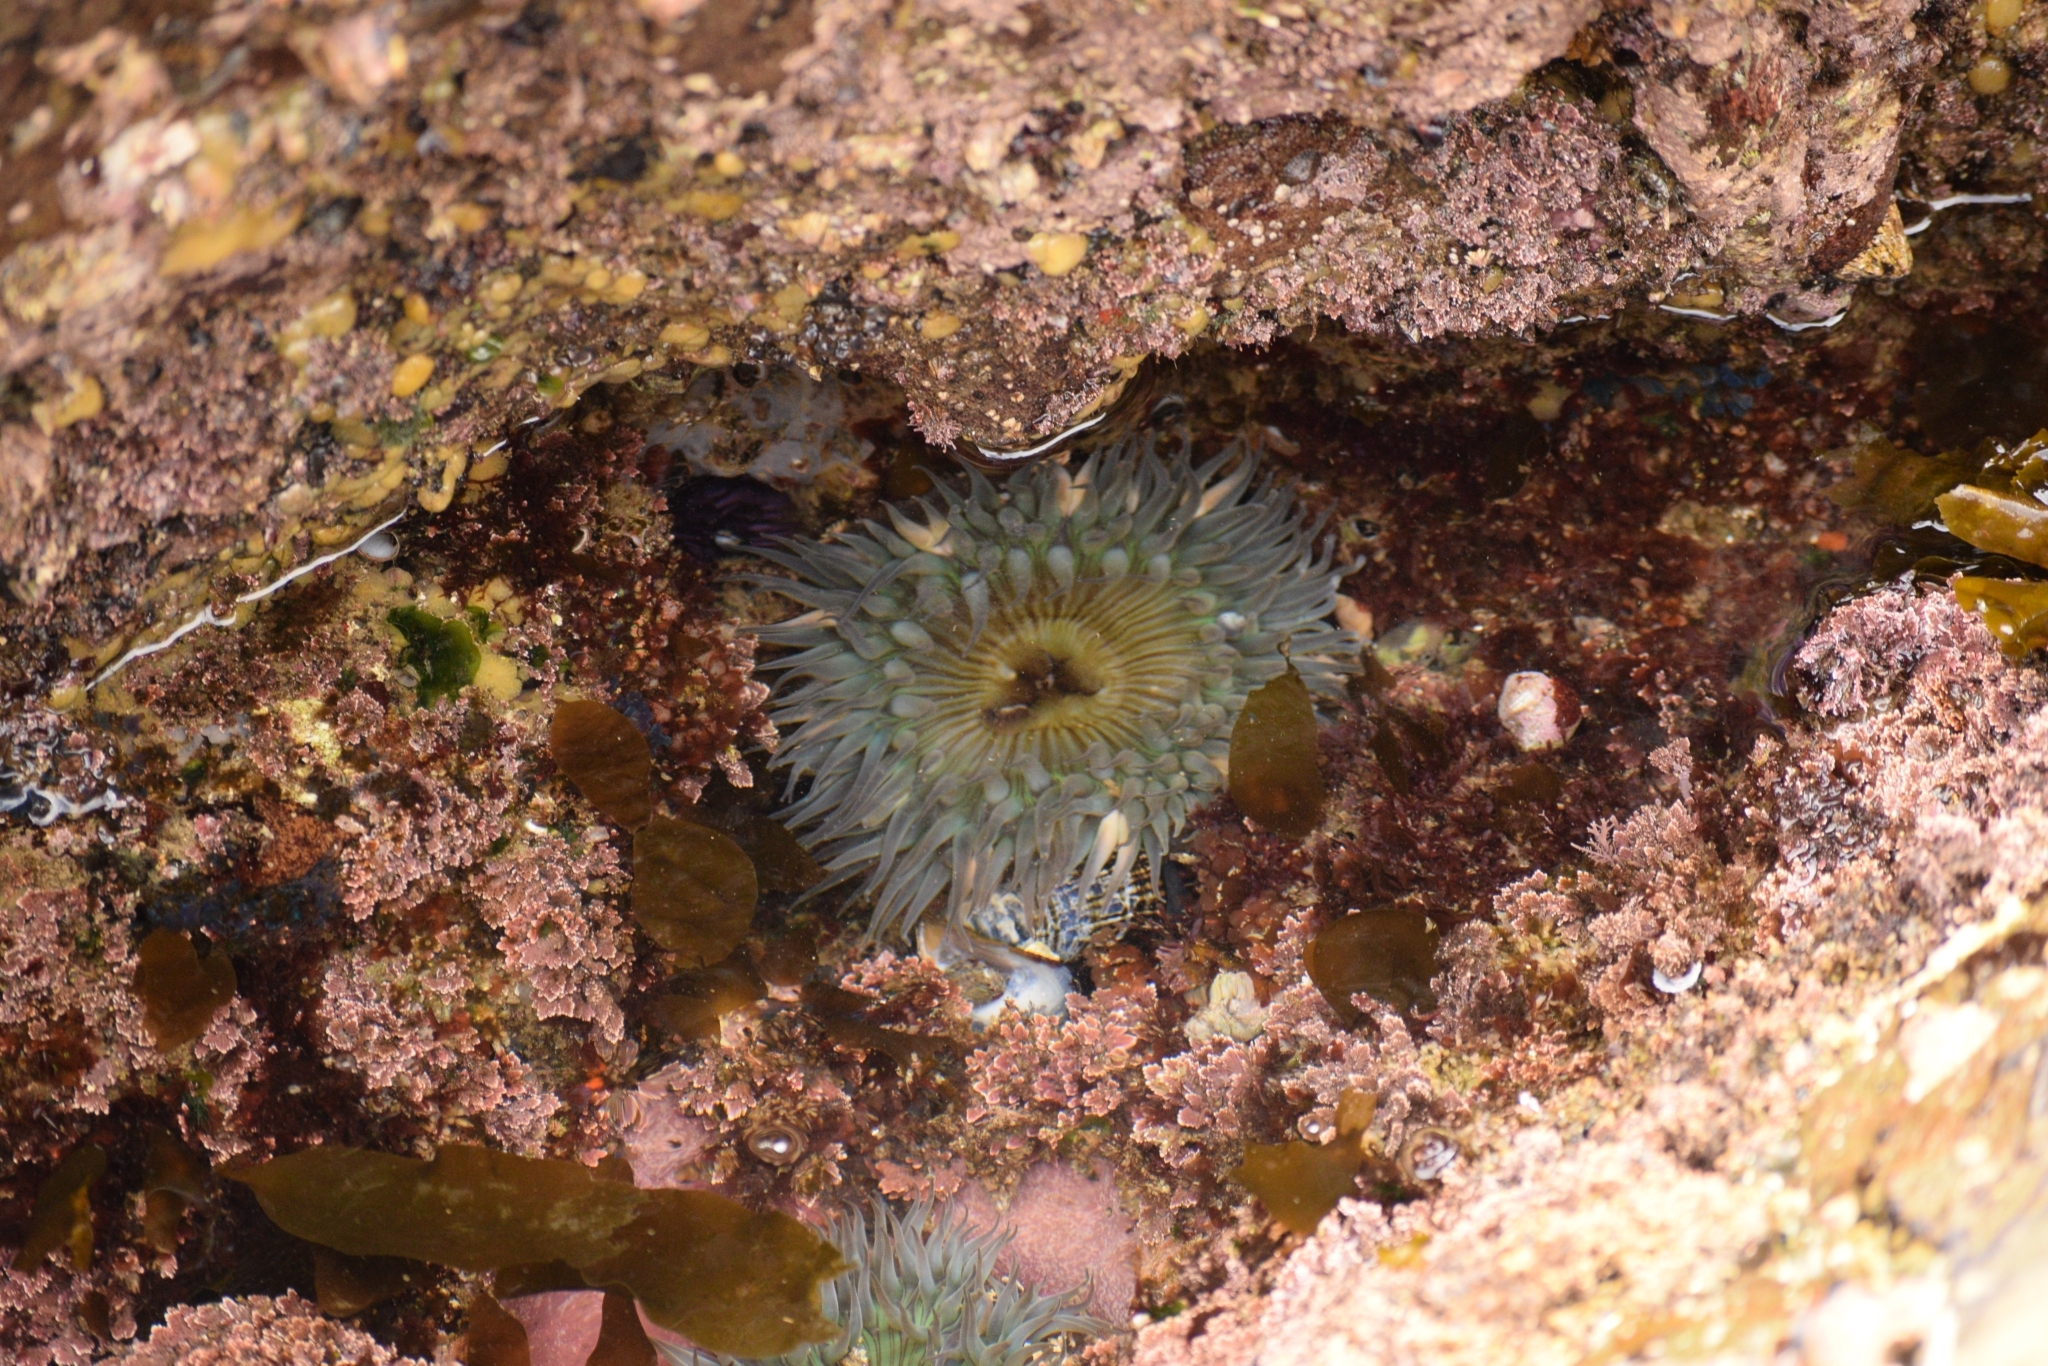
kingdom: Animalia
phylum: Cnidaria
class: Anthozoa
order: Actiniaria
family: Actiniidae
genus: Anthopleura
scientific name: Anthopleura sola
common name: Sun anemone
